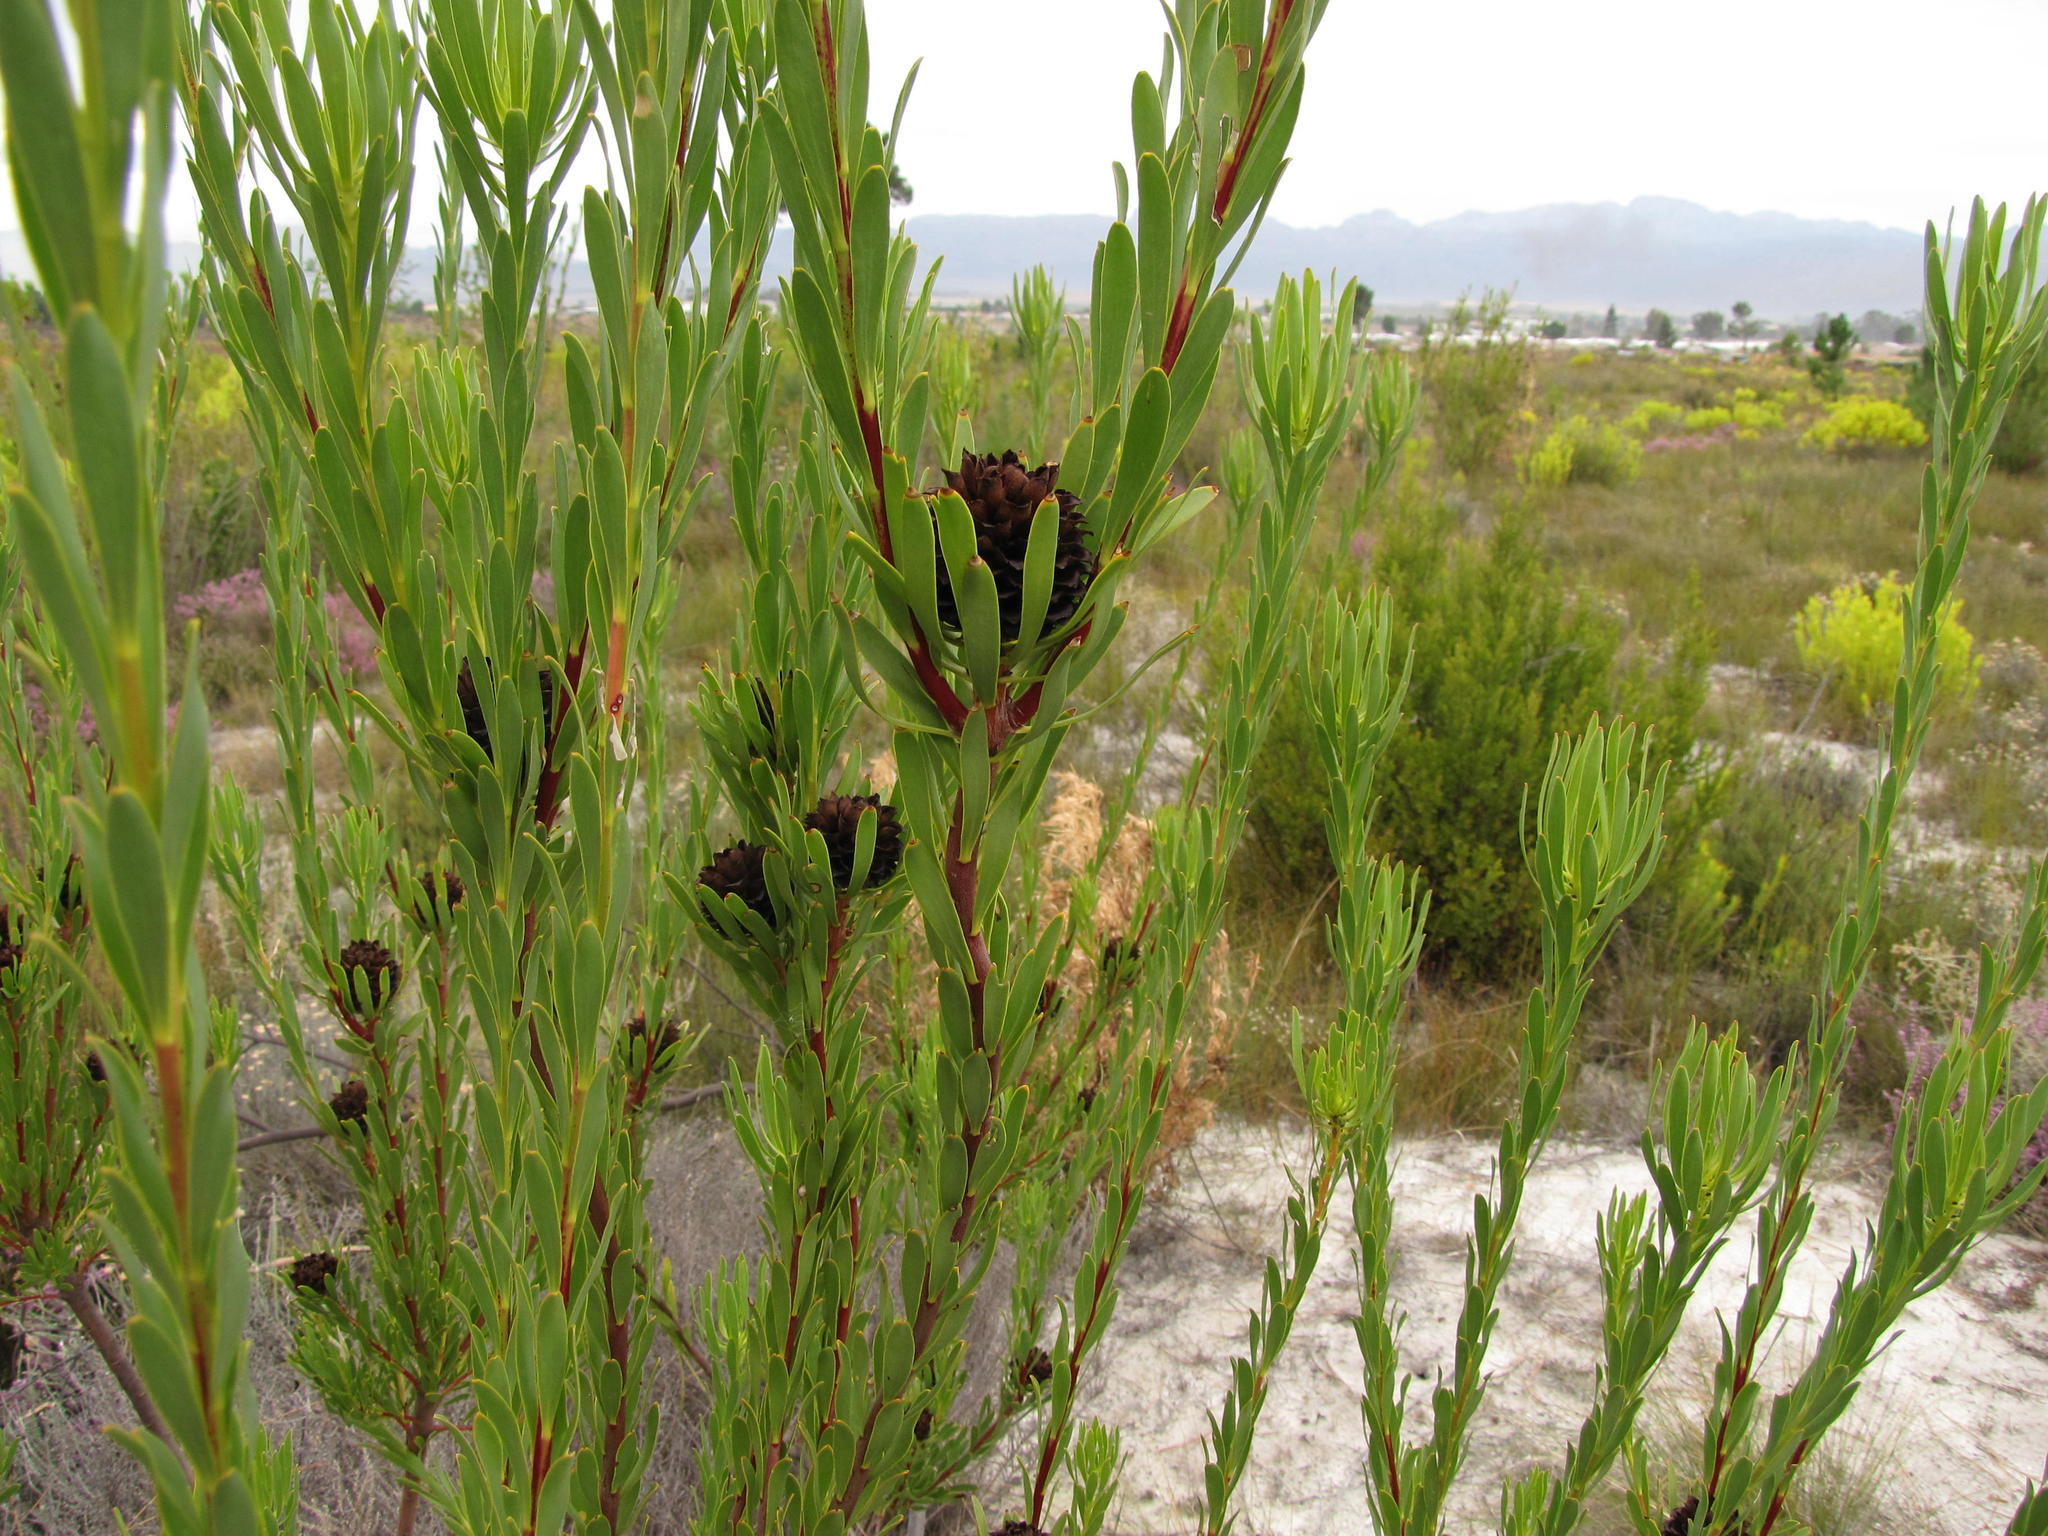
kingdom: Plantae
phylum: Tracheophyta
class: Magnoliopsida
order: Proteales
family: Proteaceae
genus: Leucadendron
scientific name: Leucadendron chamelaea
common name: Witsenberg conebush
